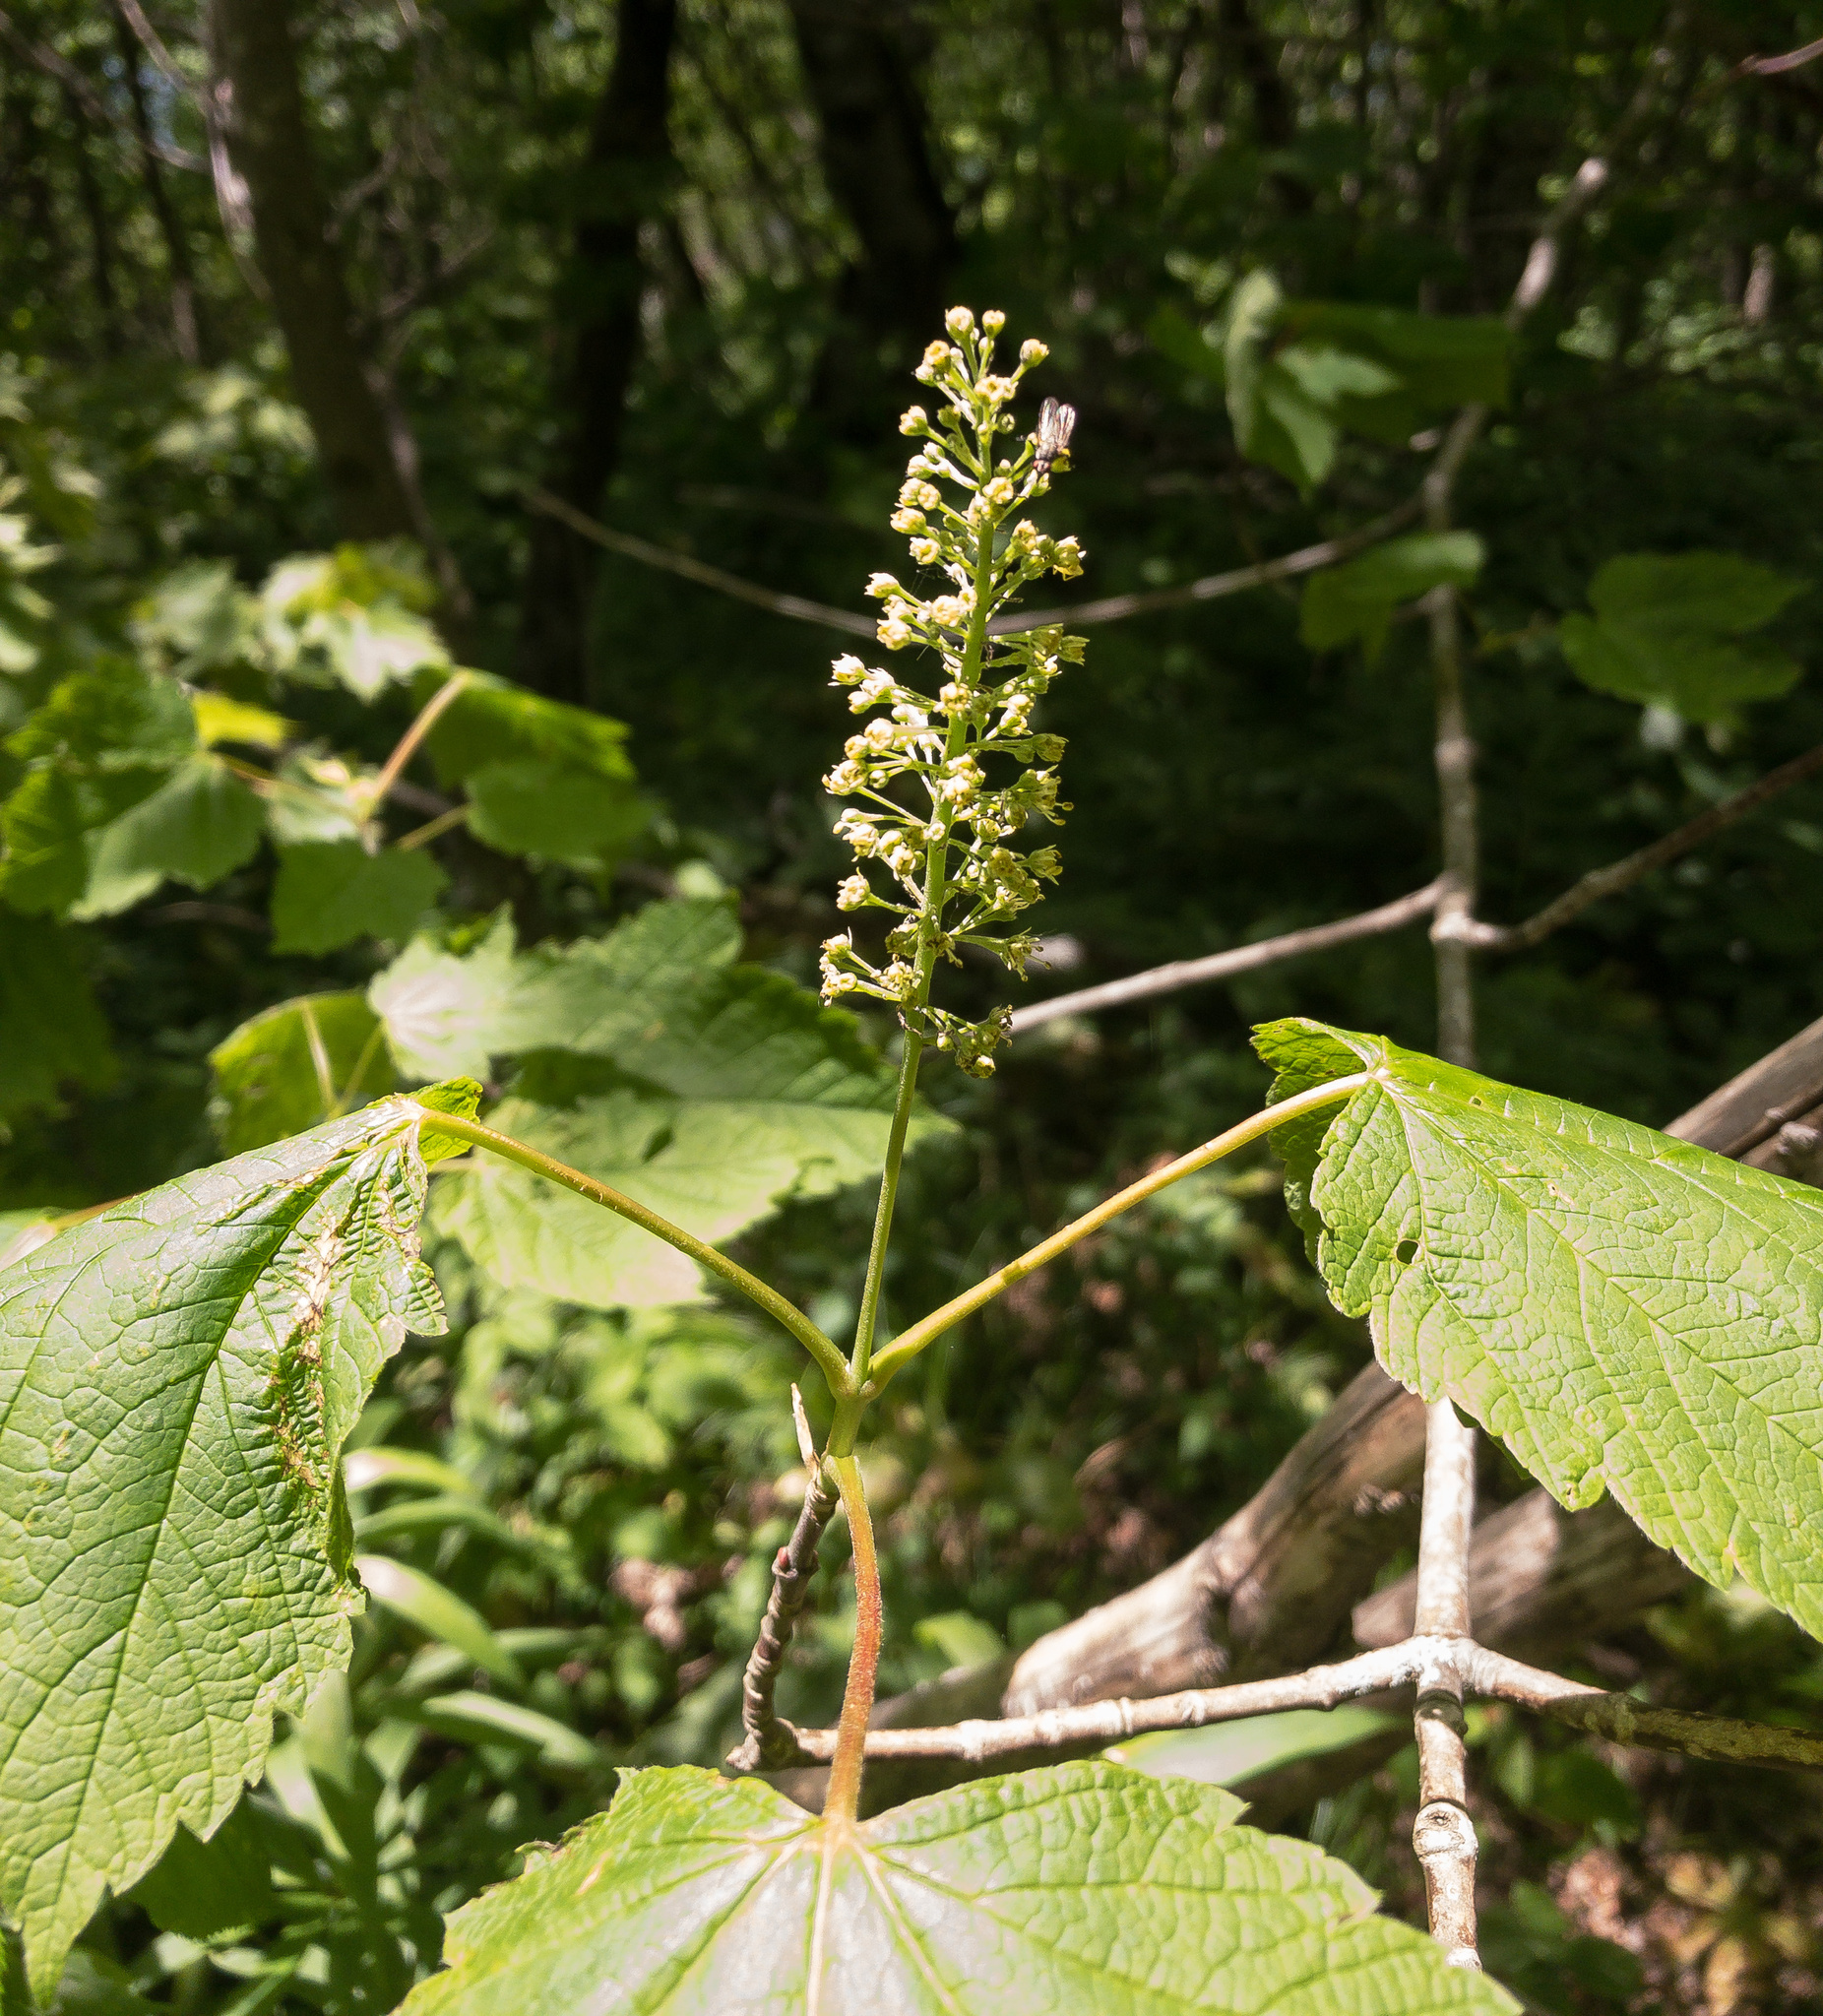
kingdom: Plantae
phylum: Tracheophyta
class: Magnoliopsida
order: Sapindales
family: Sapindaceae
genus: Acer
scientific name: Acer spicatum
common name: Mountain maple
